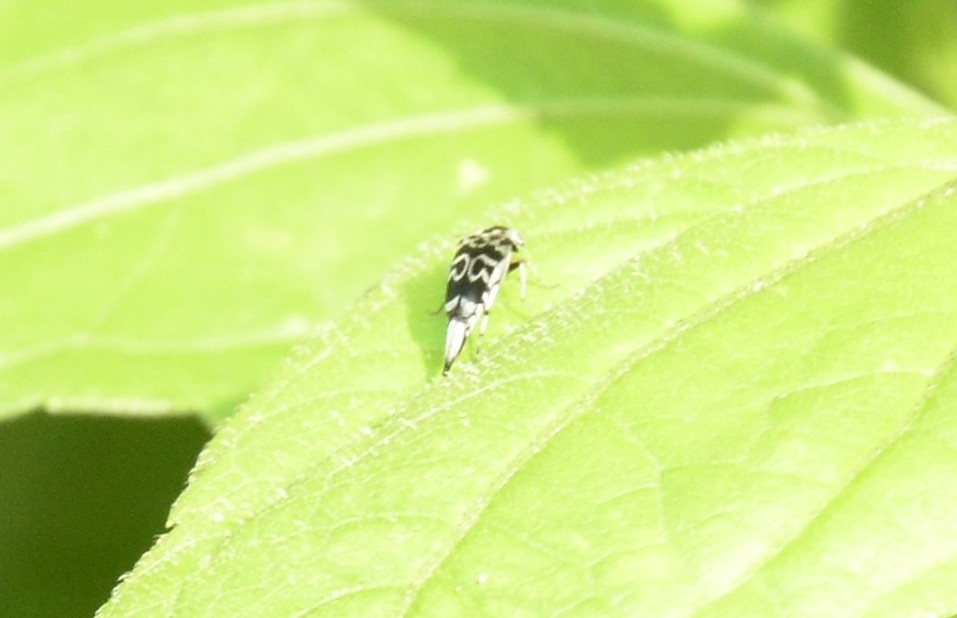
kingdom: Animalia
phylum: Arthropoda
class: Insecta
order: Coleoptera
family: Mordellidae
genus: Glipa
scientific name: Glipa
